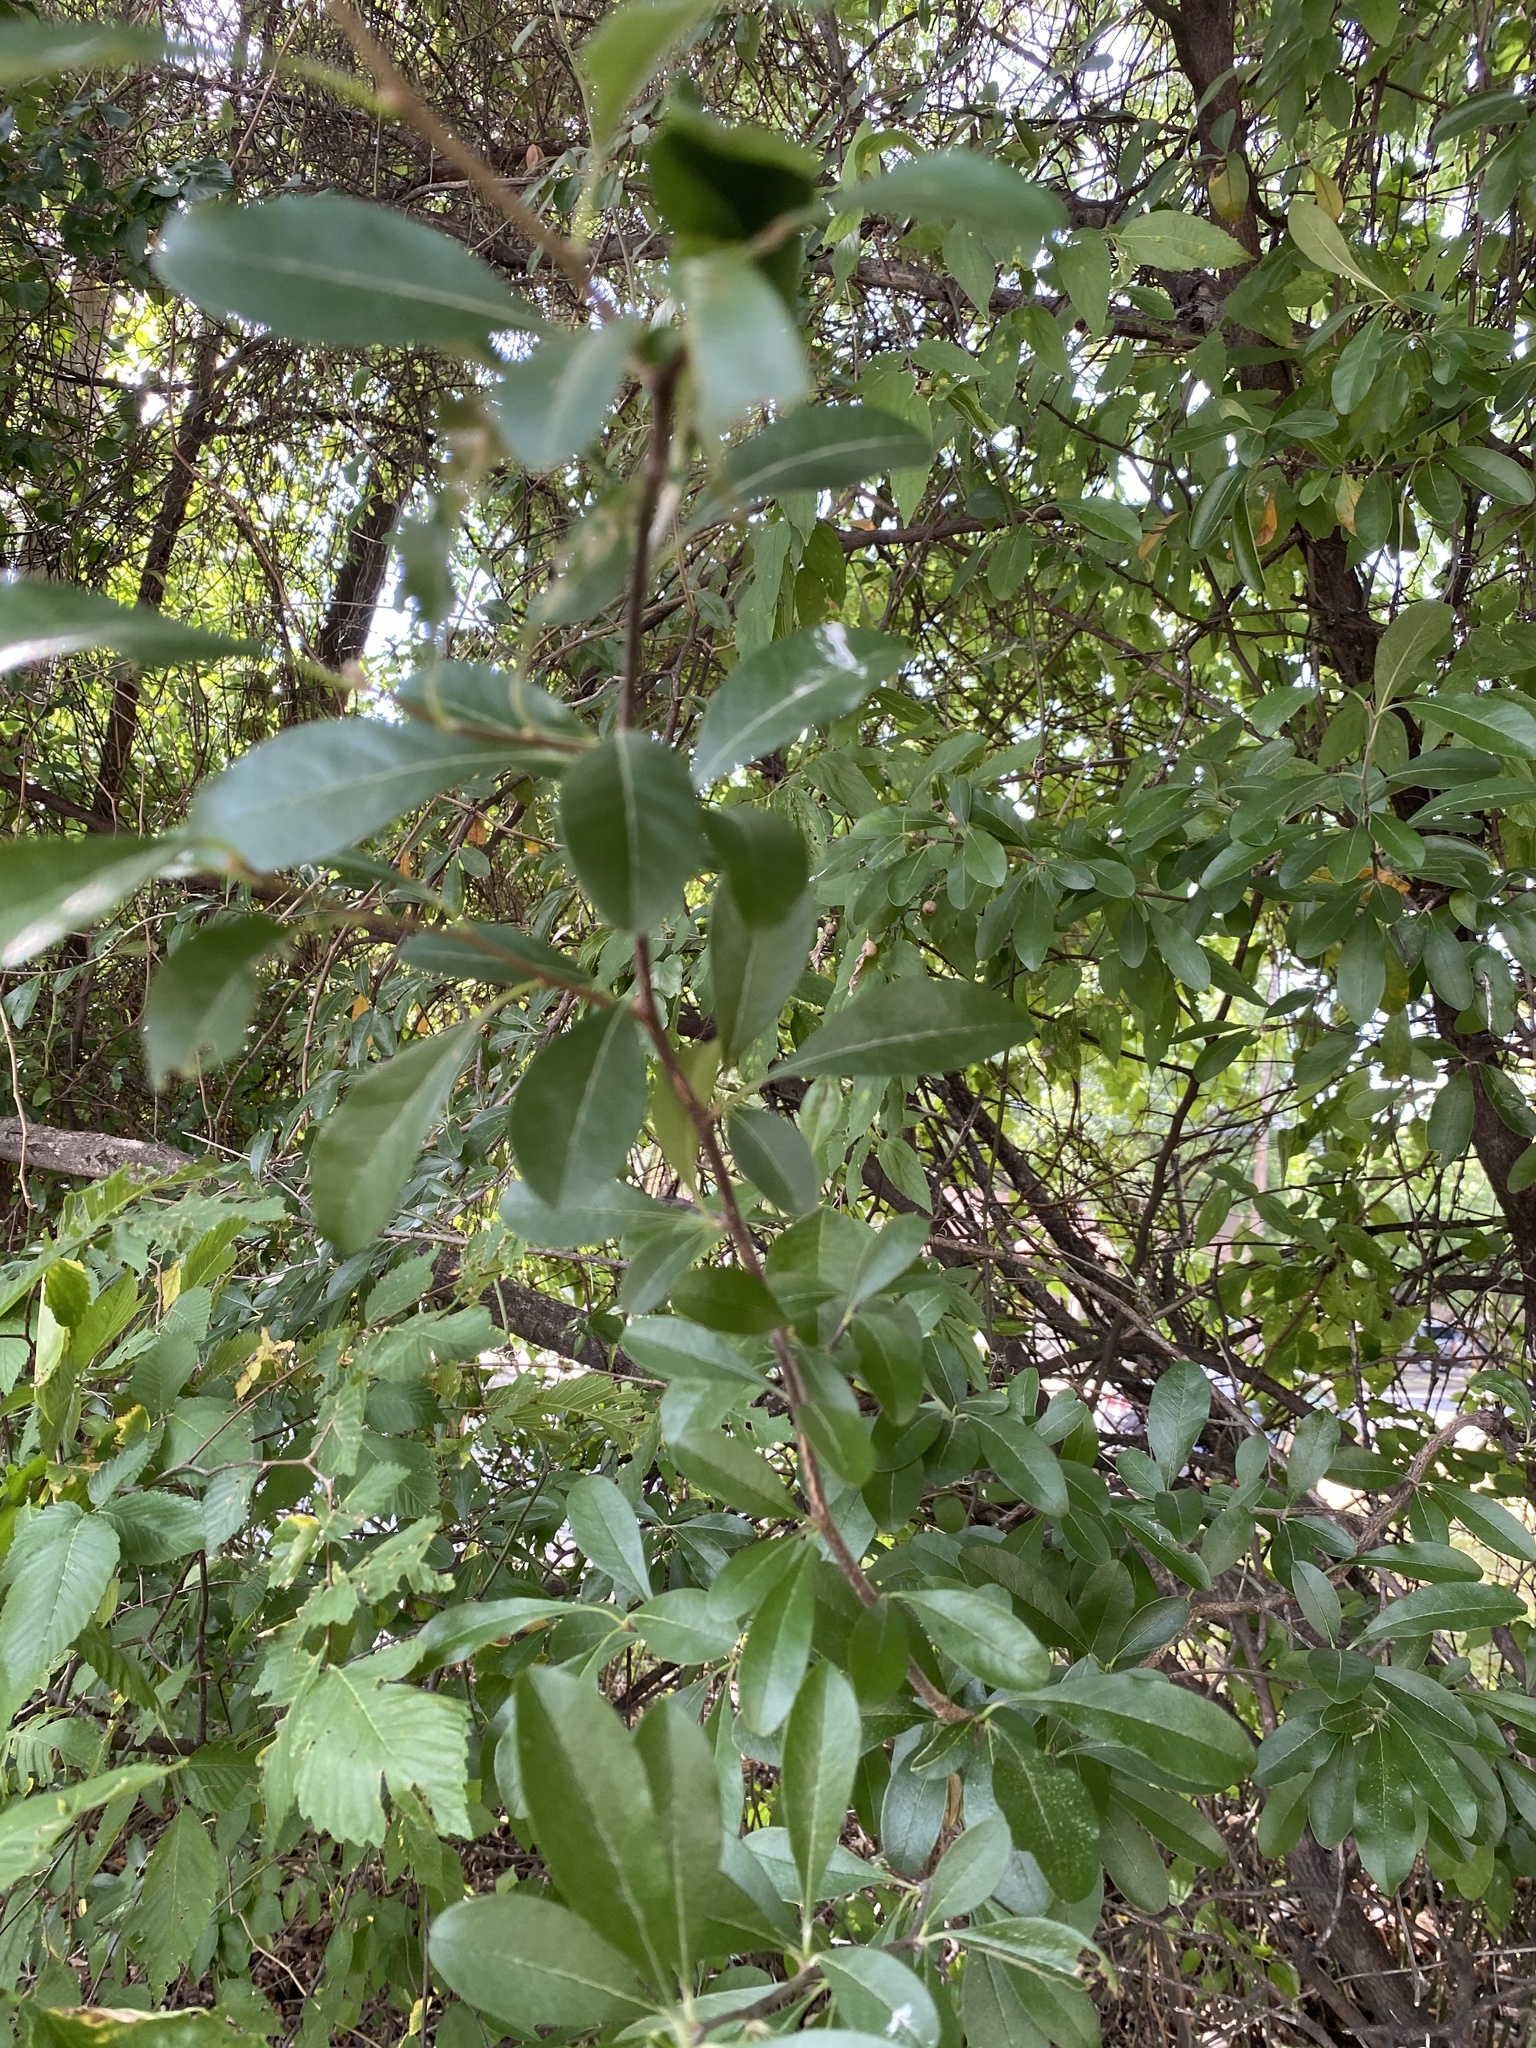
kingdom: Plantae
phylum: Tracheophyta
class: Magnoliopsida
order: Ericales
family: Sapotaceae
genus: Sideroxylon
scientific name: Sideroxylon lanuginosum
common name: Chittamwood
